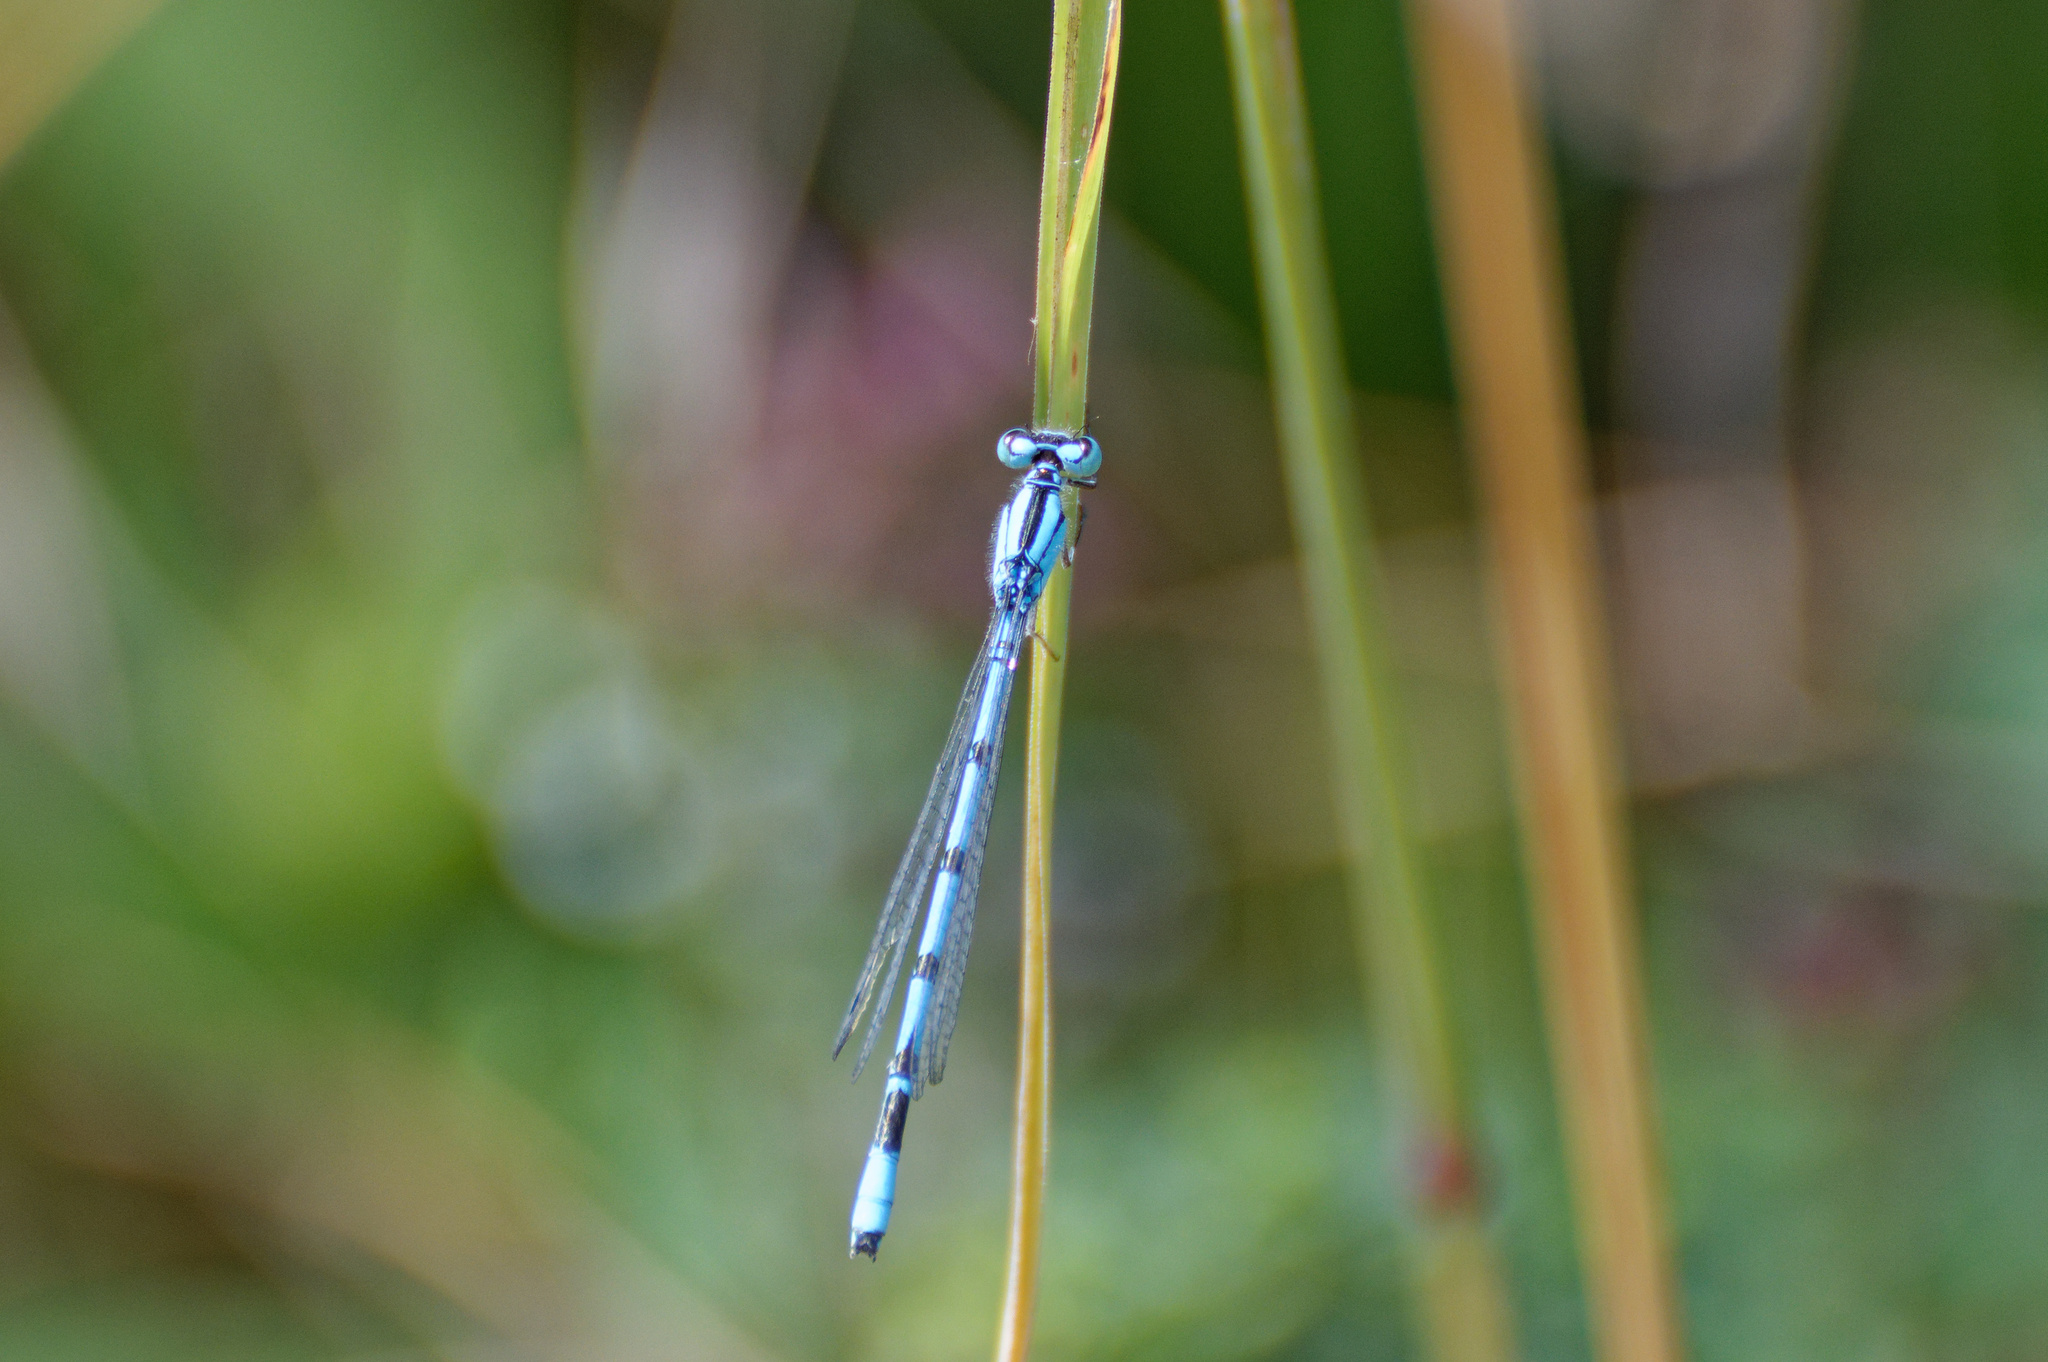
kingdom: Animalia
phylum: Arthropoda
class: Insecta
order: Odonata
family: Coenagrionidae
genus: Enallagma
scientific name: Enallagma cyathigerum
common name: Common blue damselfly
